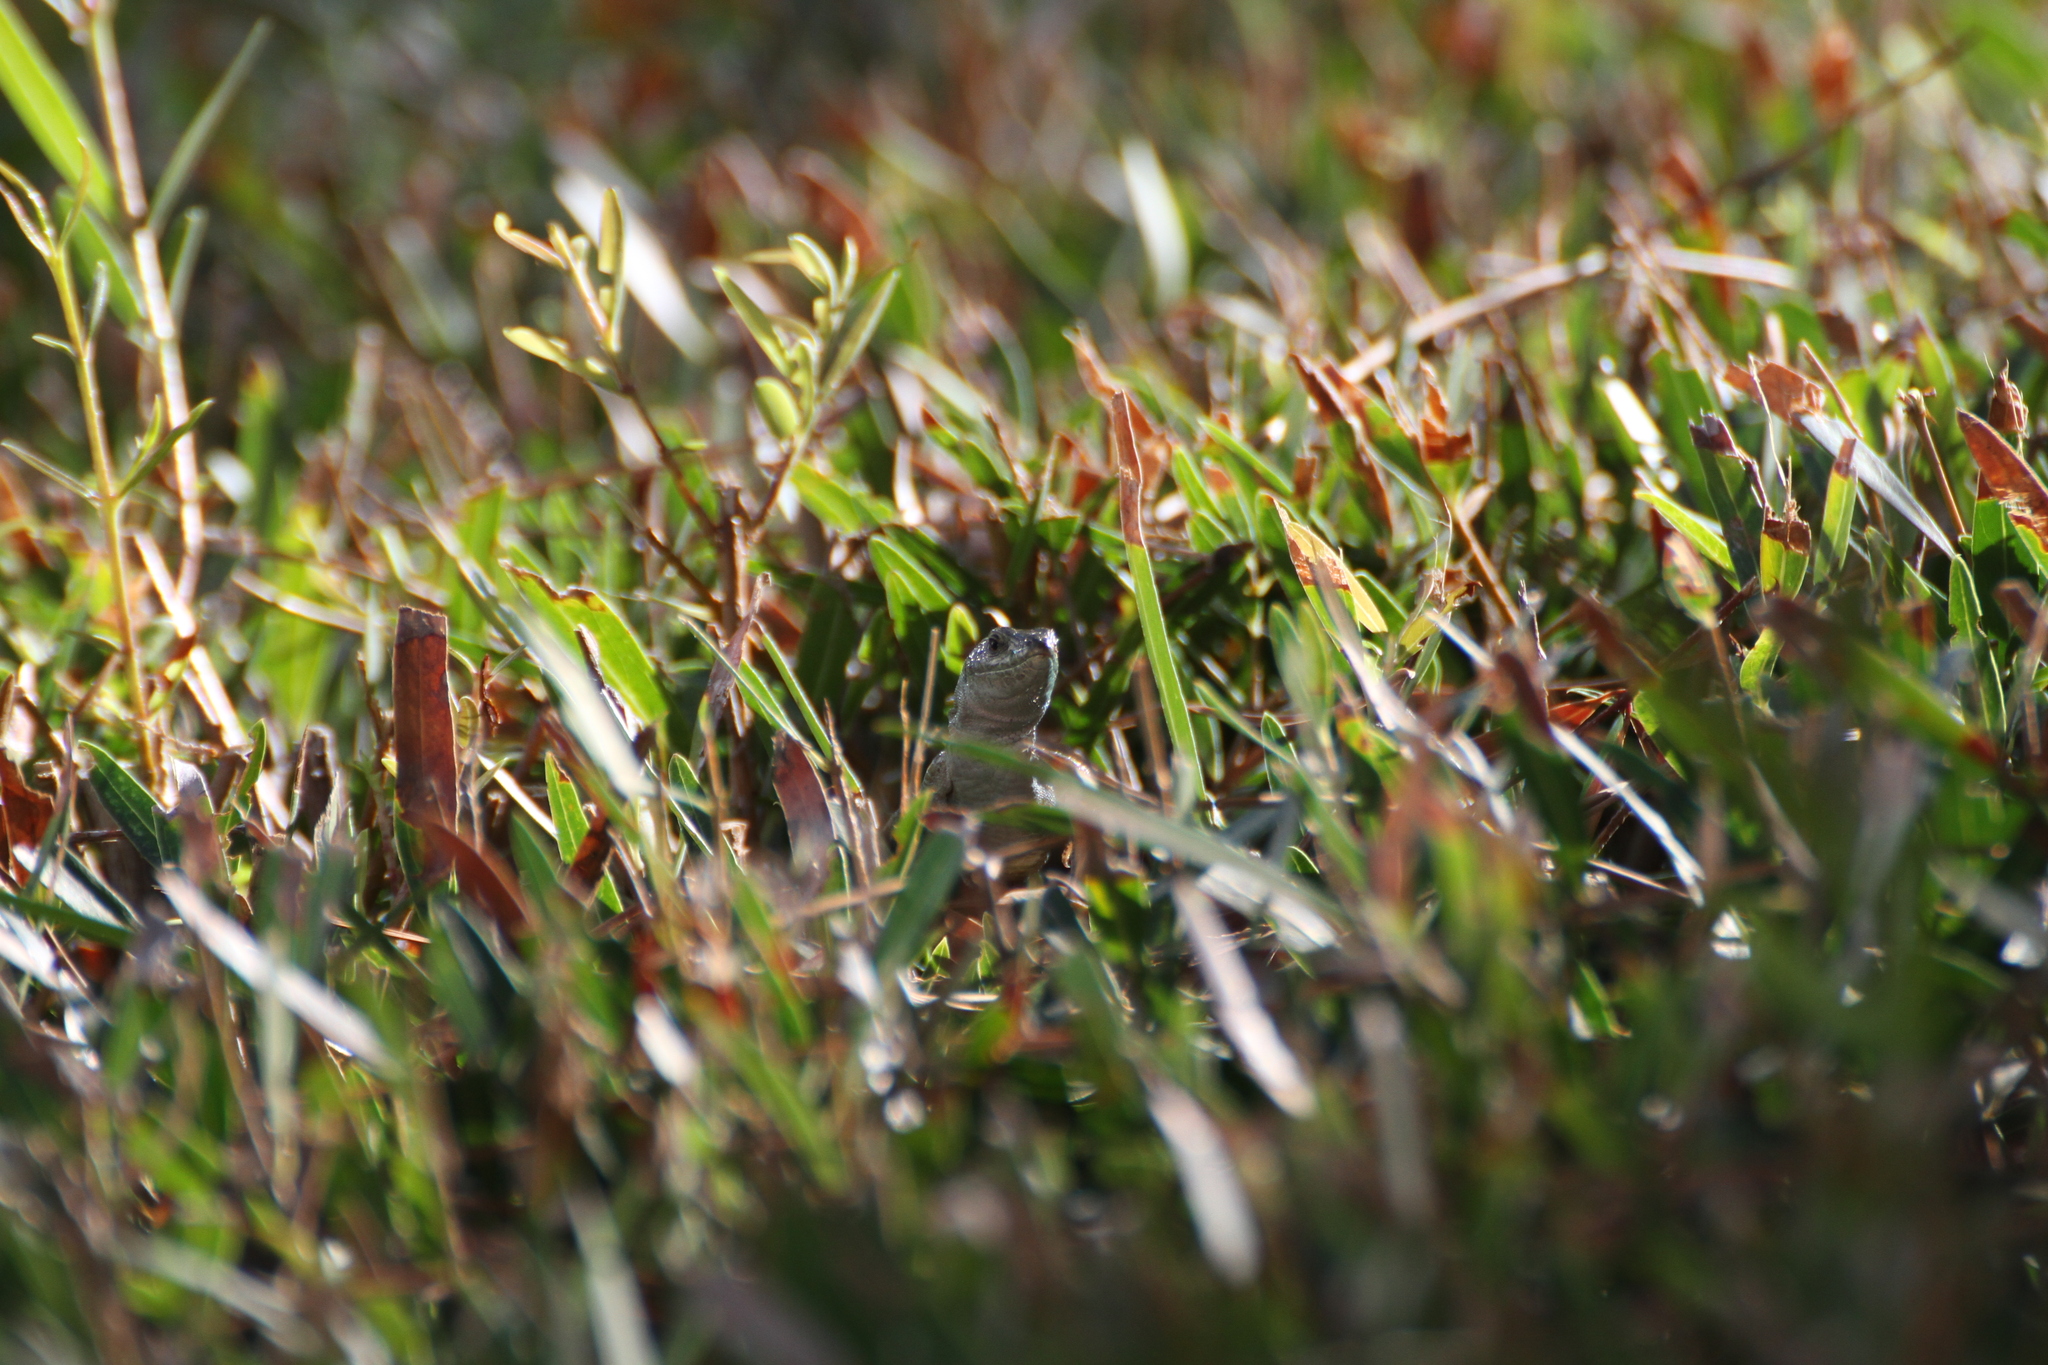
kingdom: Animalia
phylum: Chordata
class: Squamata
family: Lacertidae
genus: Podarcis
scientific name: Podarcis siculus
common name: Italian wall lizard
